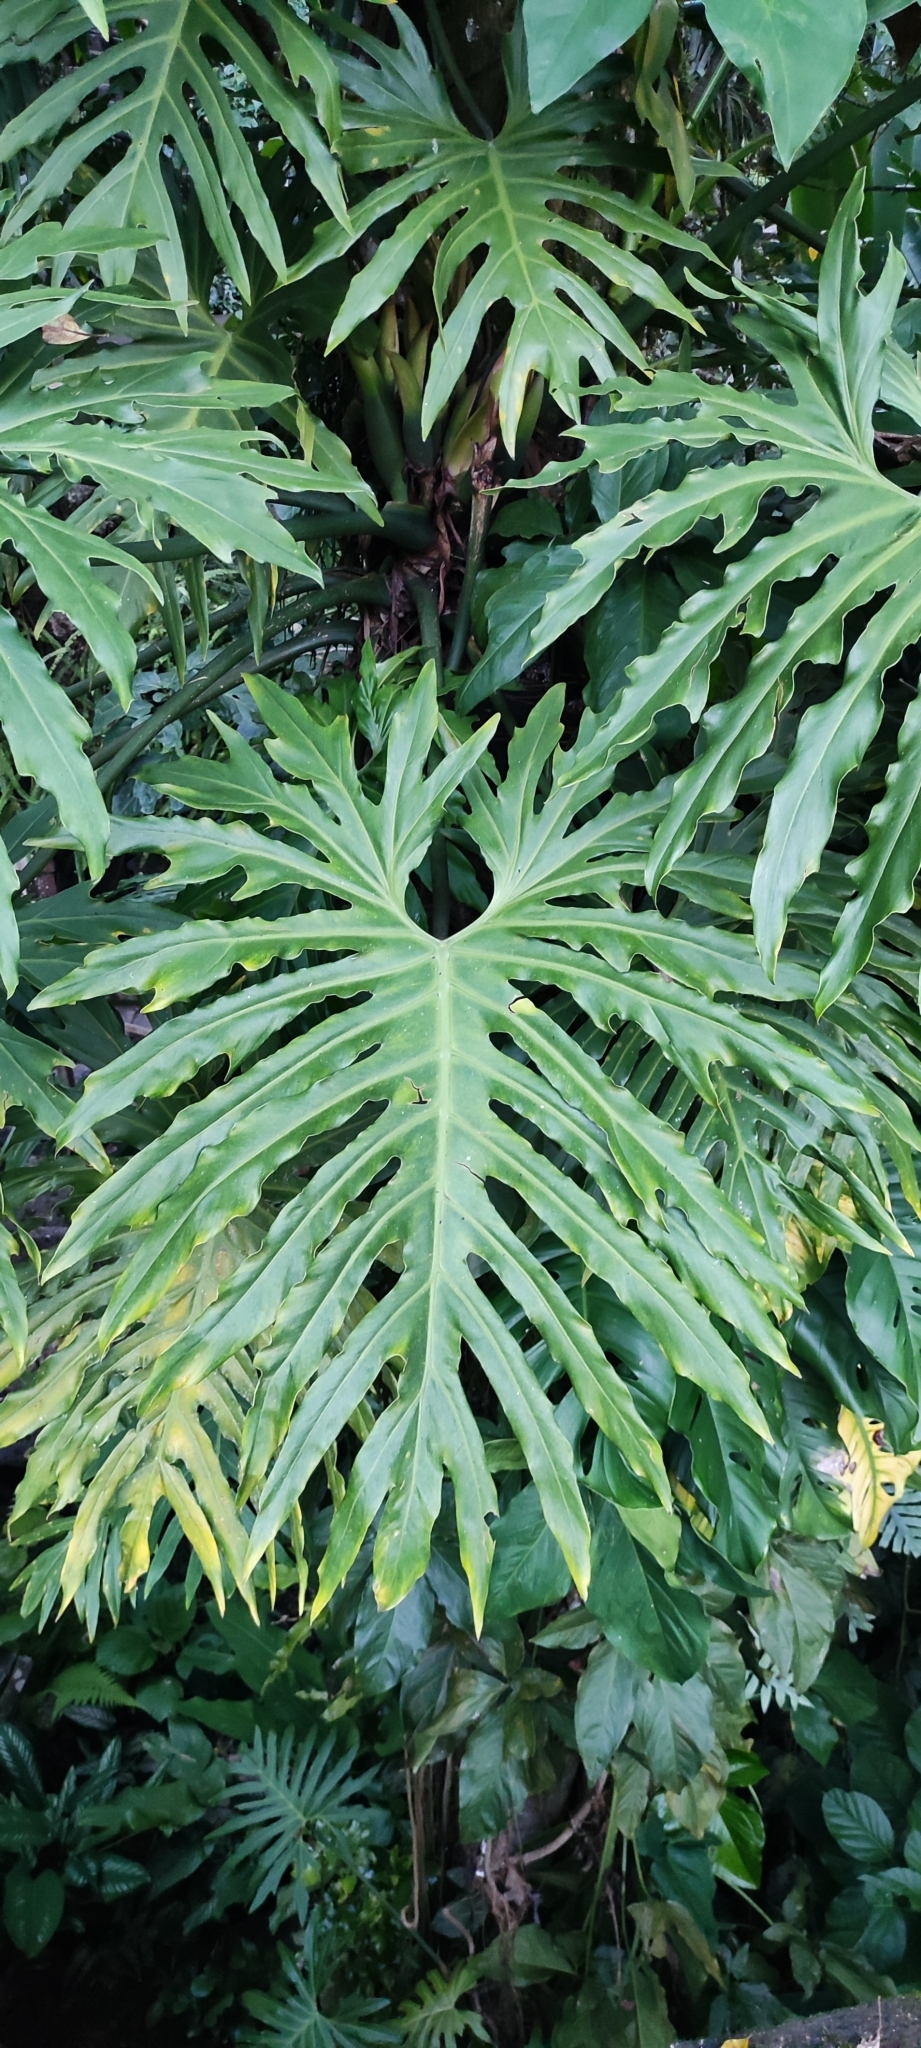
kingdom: Plantae
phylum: Tracheophyta
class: Liliopsida
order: Alismatales
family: Araceae
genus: Philodendron
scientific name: Philodendron radiatum
